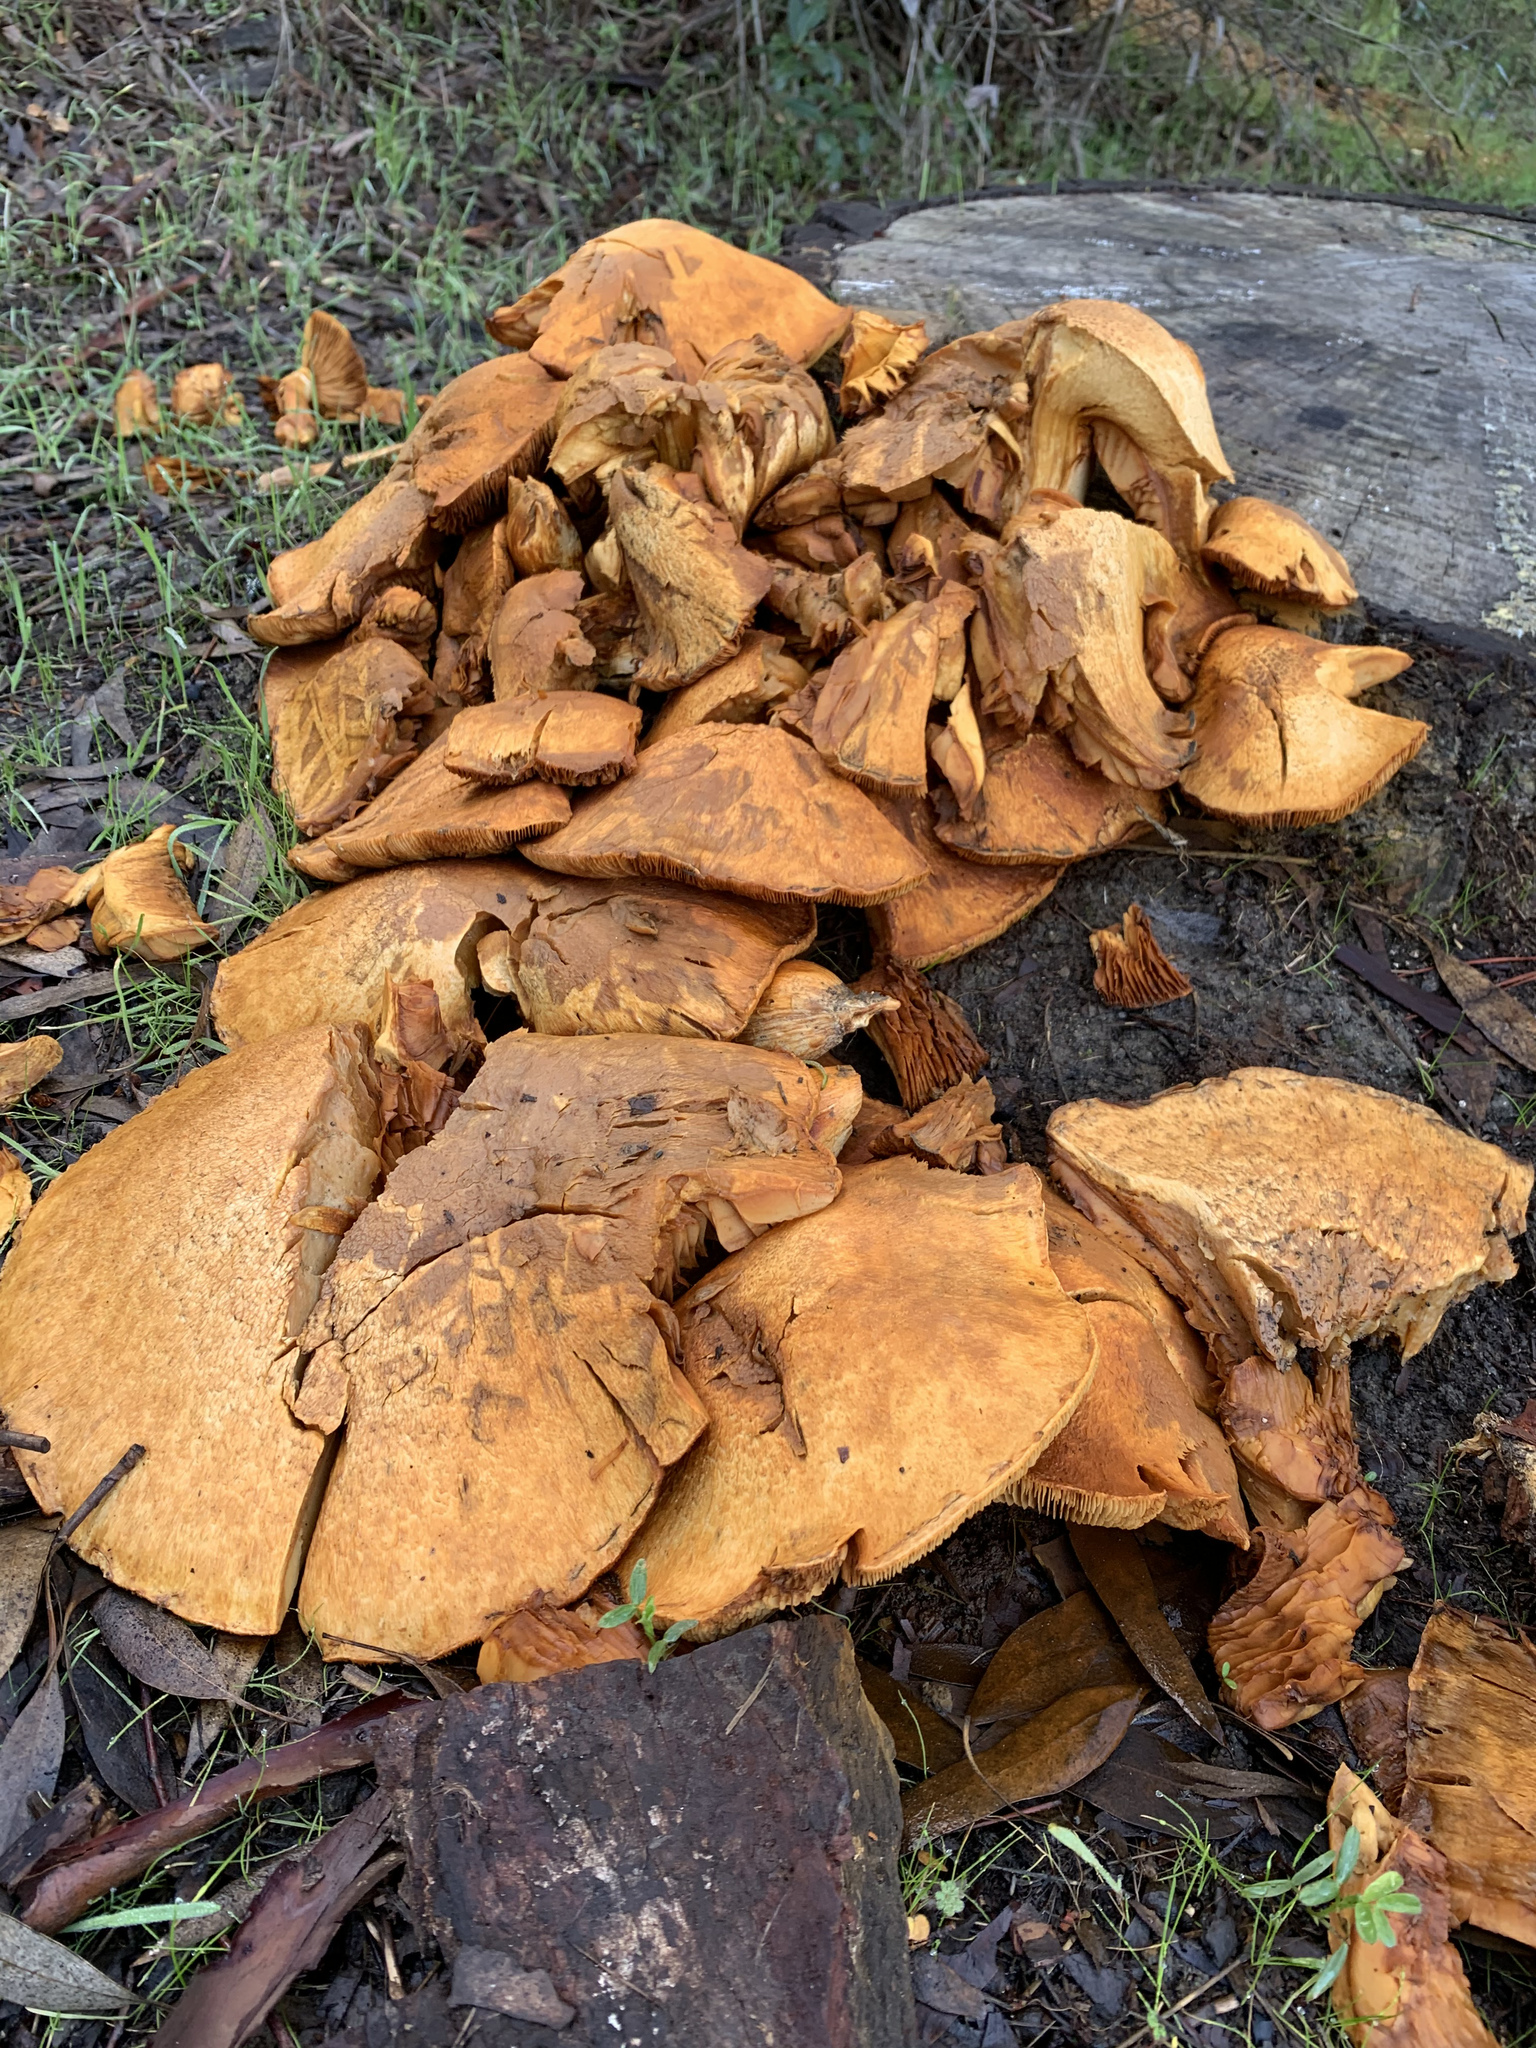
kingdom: Fungi
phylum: Basidiomycota
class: Agaricomycetes
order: Agaricales
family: Hymenogastraceae
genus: Gymnopilus
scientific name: Gymnopilus ventricosus
